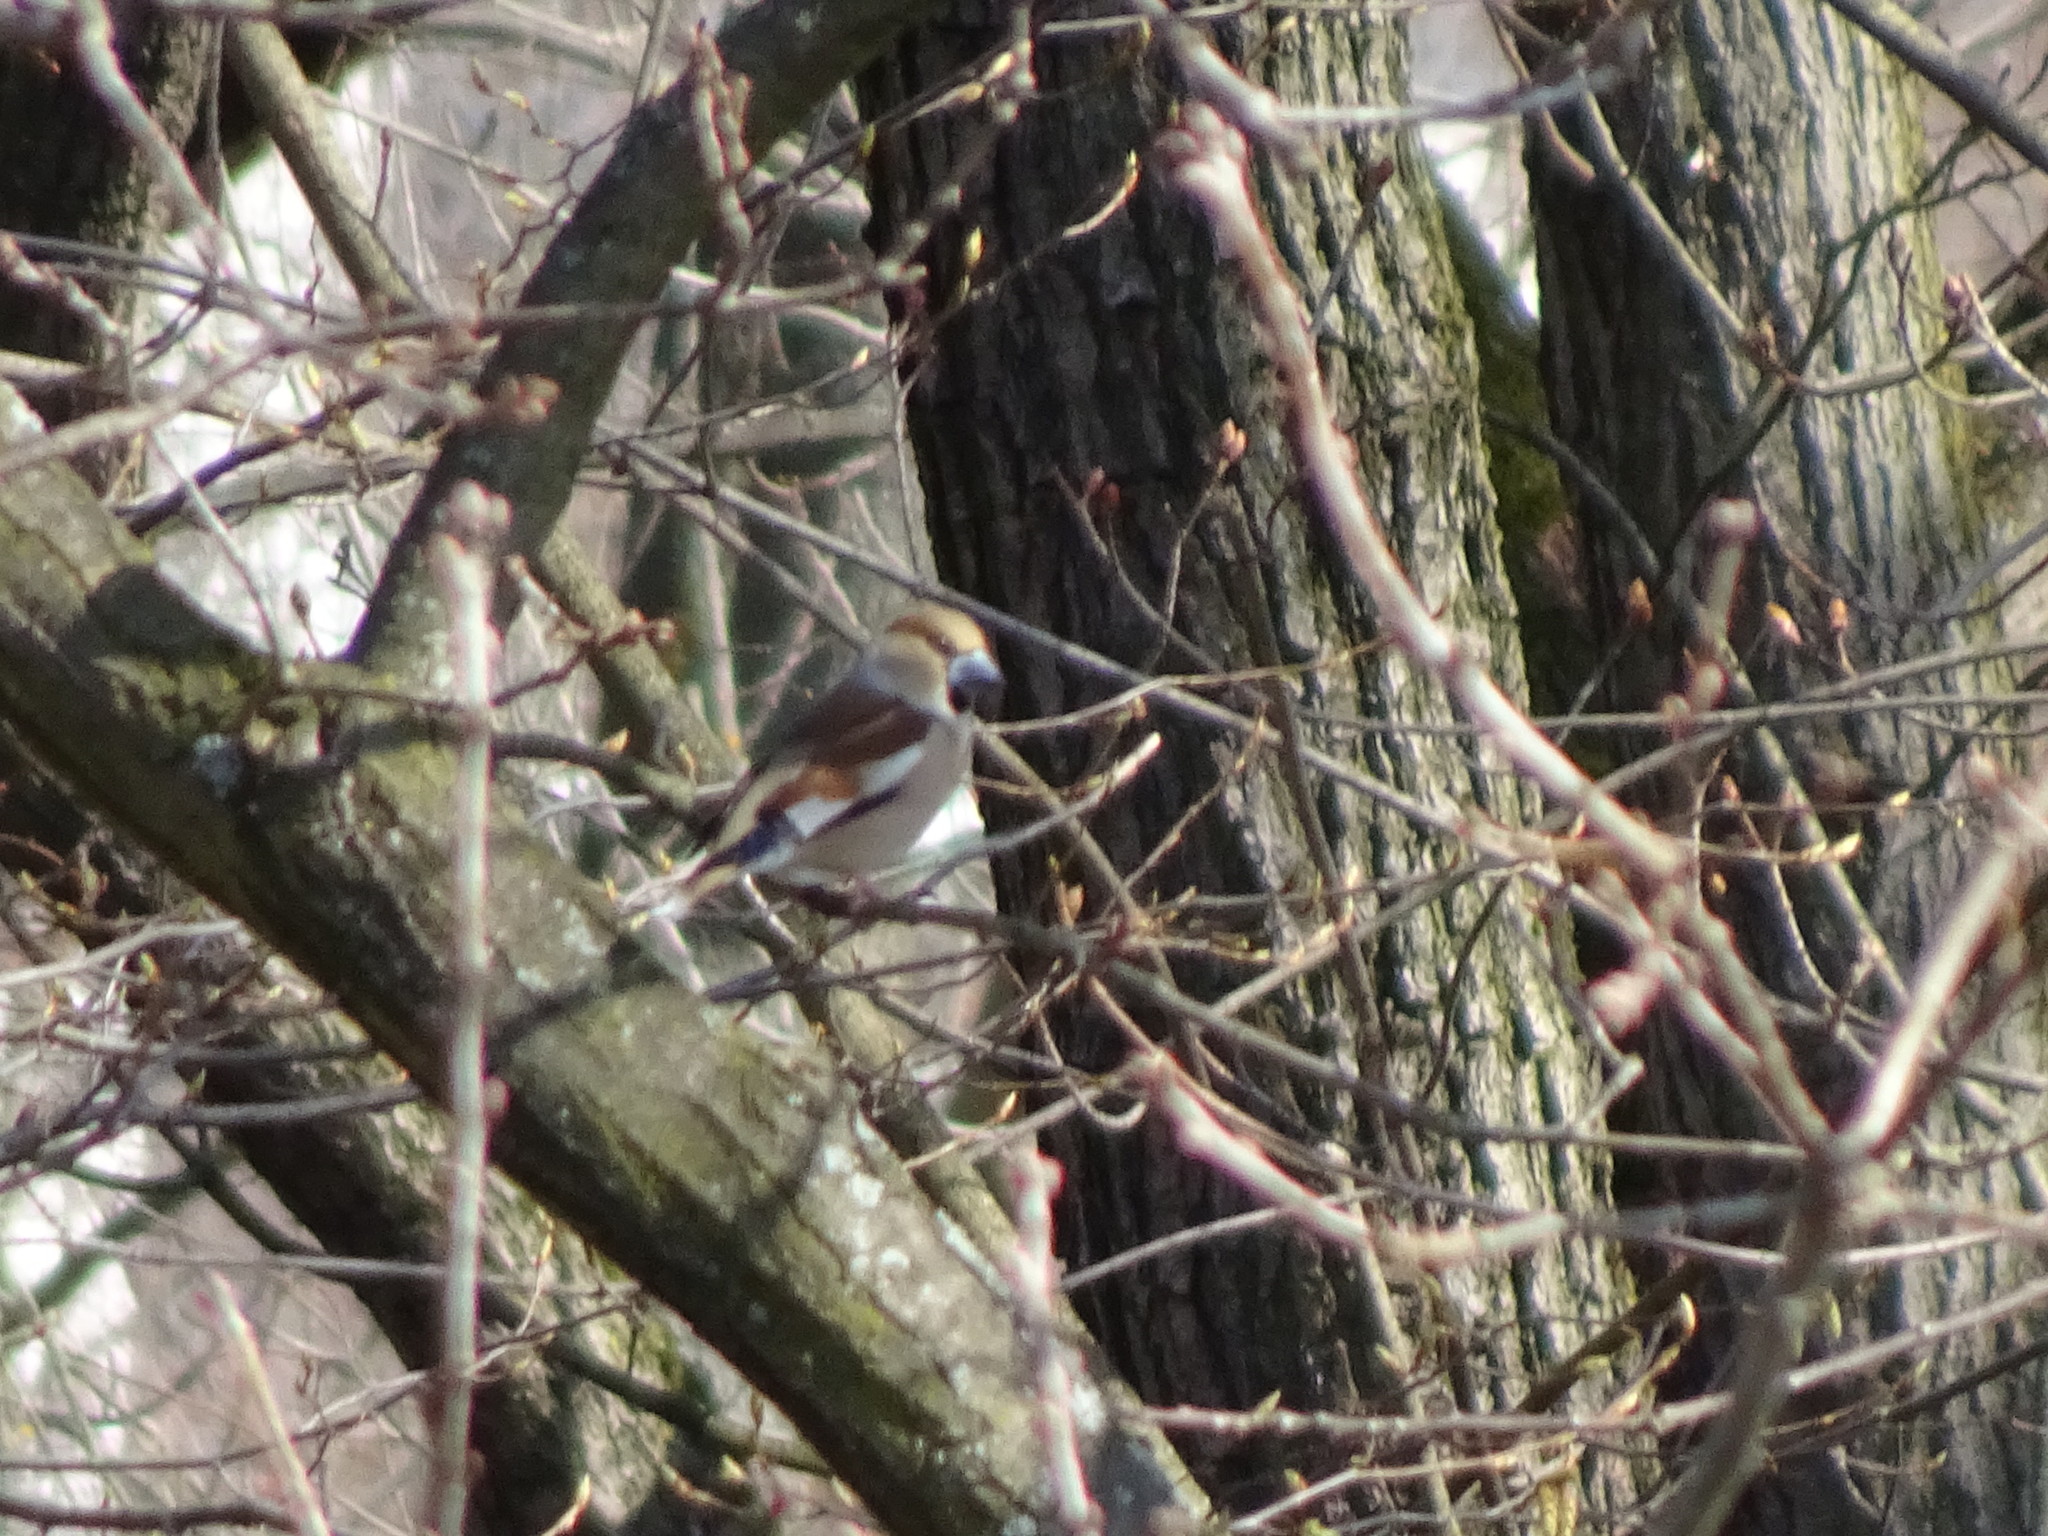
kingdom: Animalia
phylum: Chordata
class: Aves
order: Passeriformes
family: Fringillidae
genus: Coccothraustes
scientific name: Coccothraustes coccothraustes
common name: Hawfinch
